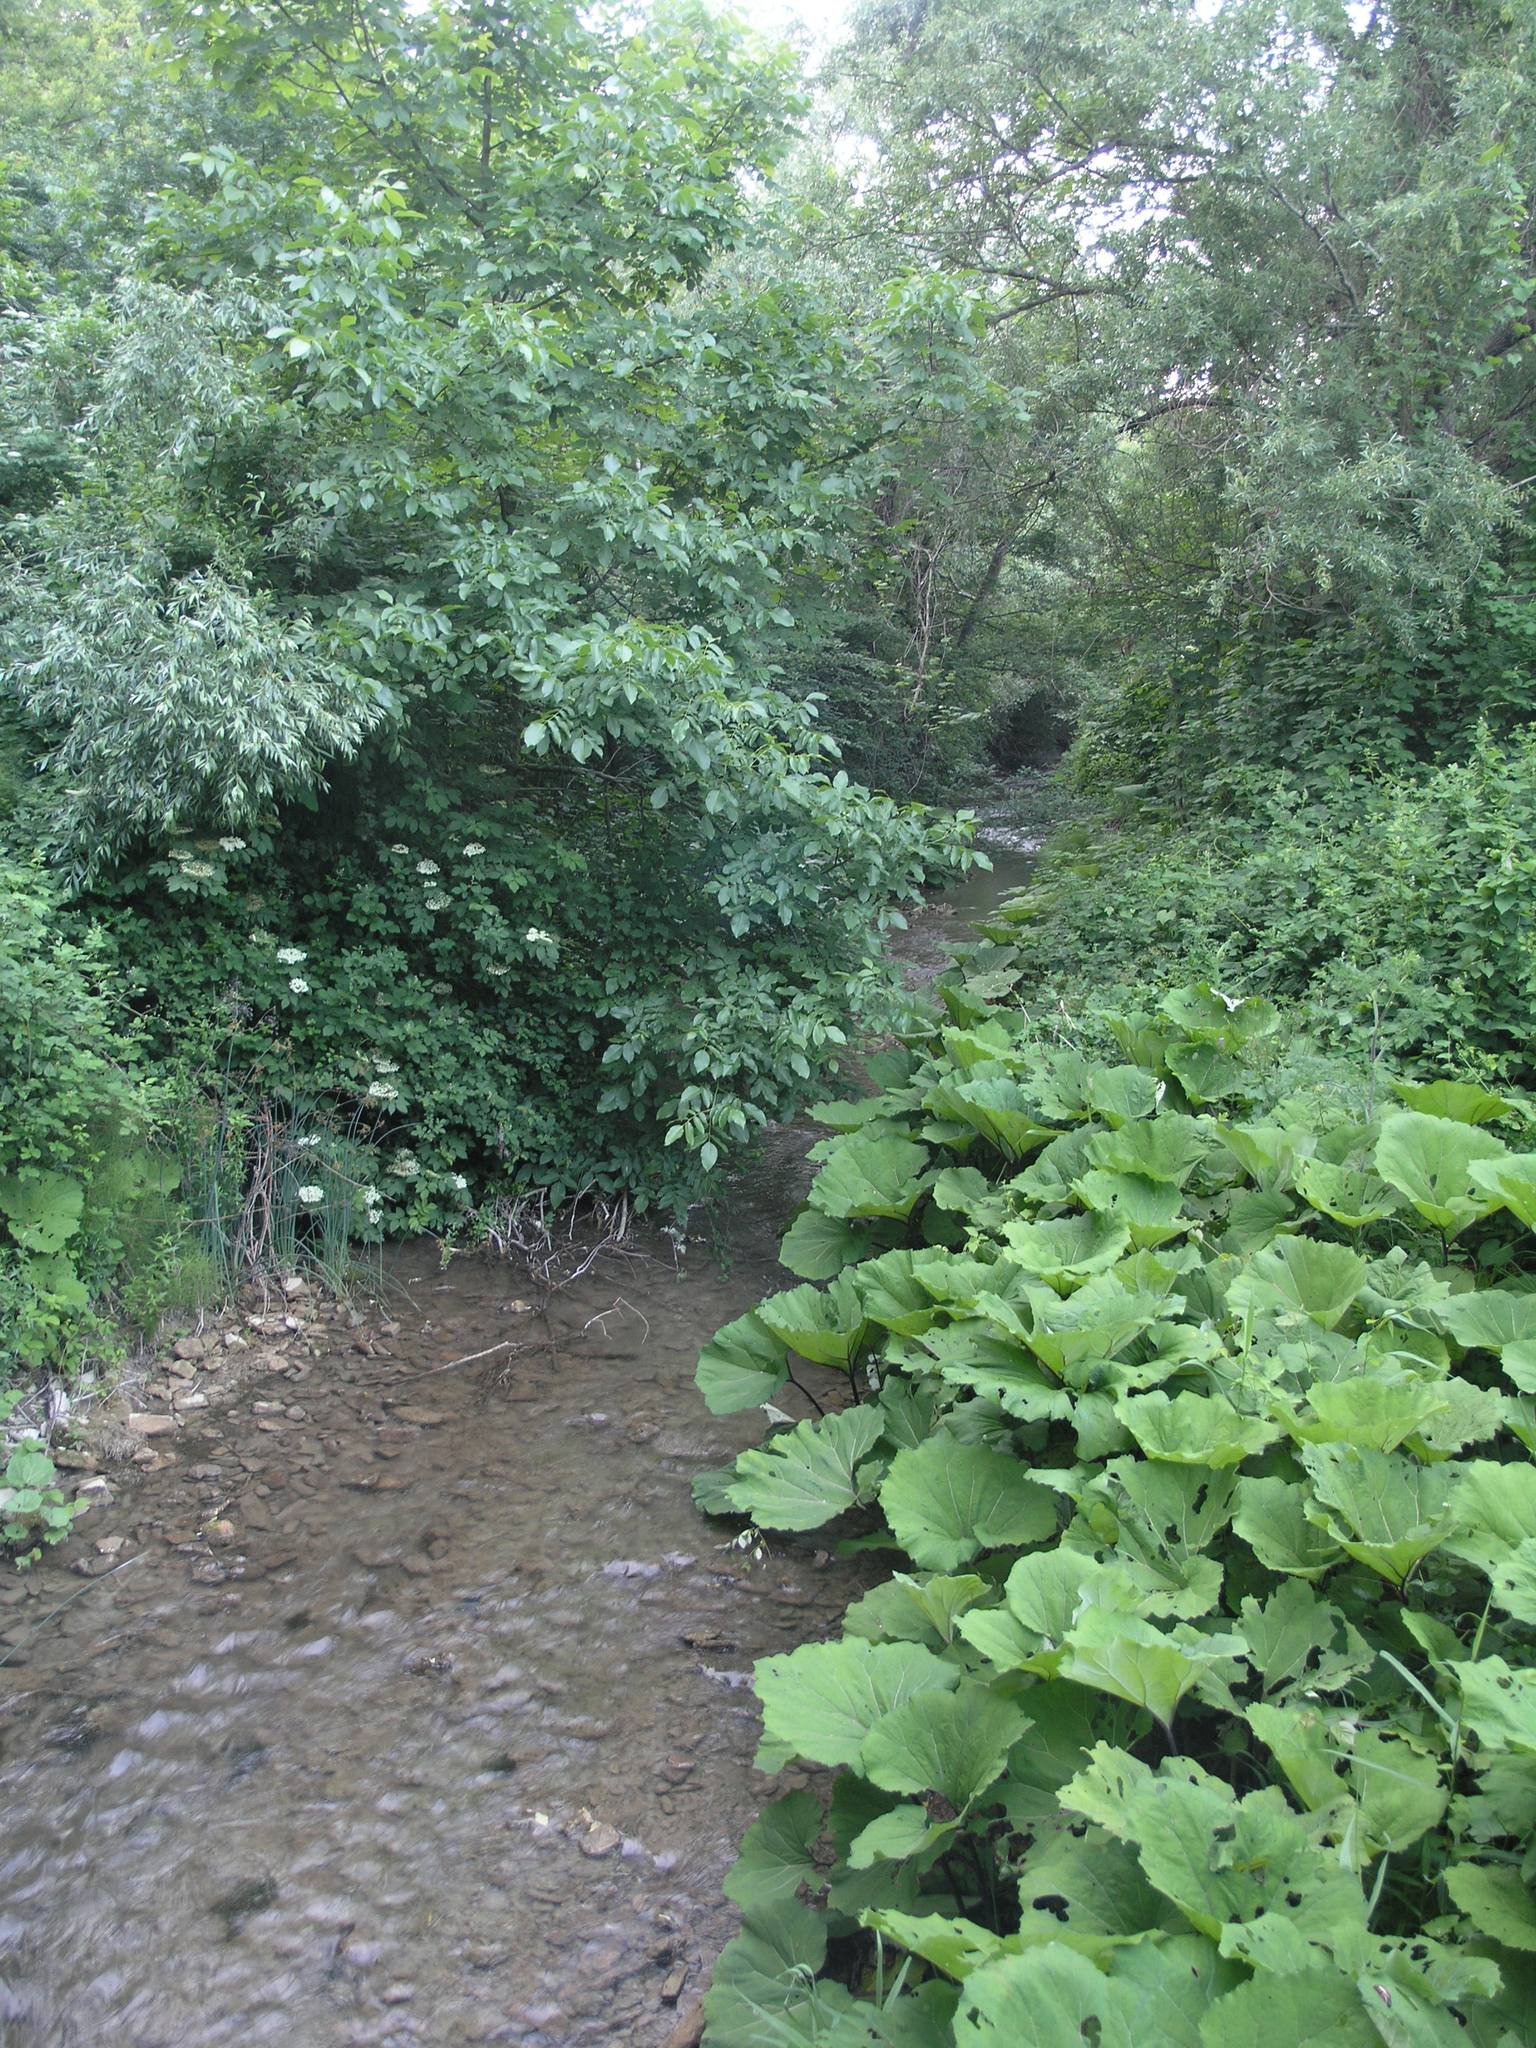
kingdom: Plantae
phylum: Tracheophyta
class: Magnoliopsida
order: Asterales
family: Asteraceae
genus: Petasites
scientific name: Petasites albus
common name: White butterbur
